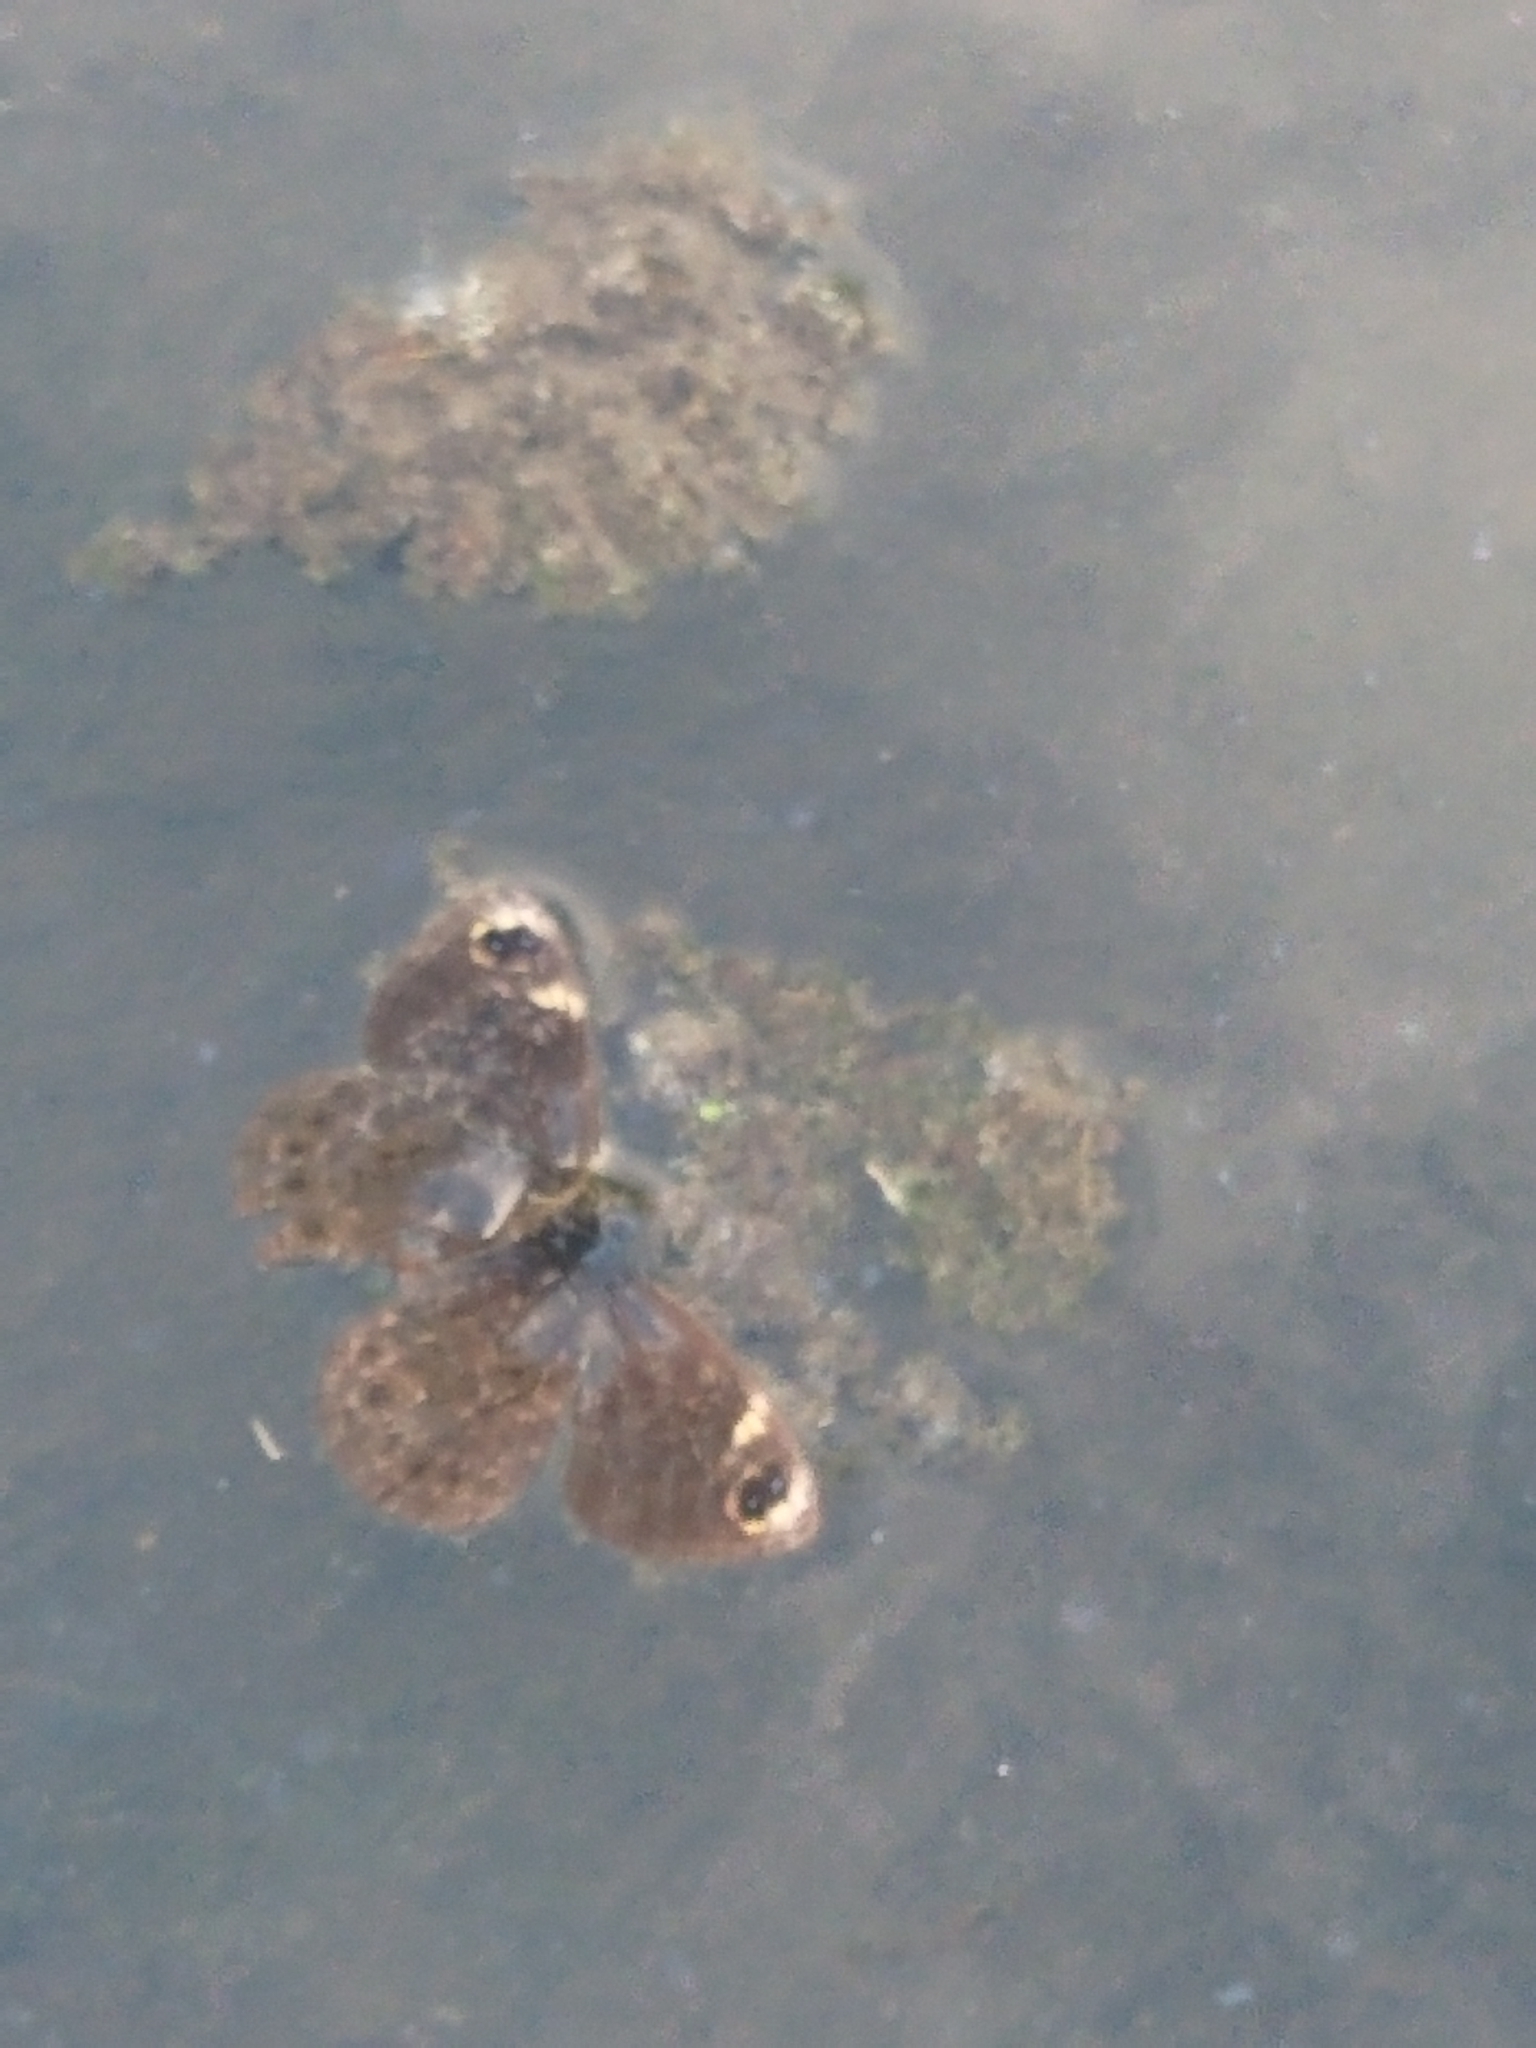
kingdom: Animalia
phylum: Arthropoda
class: Insecta
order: Lepidoptera
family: Nymphalidae
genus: Dira
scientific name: Dira clytus
